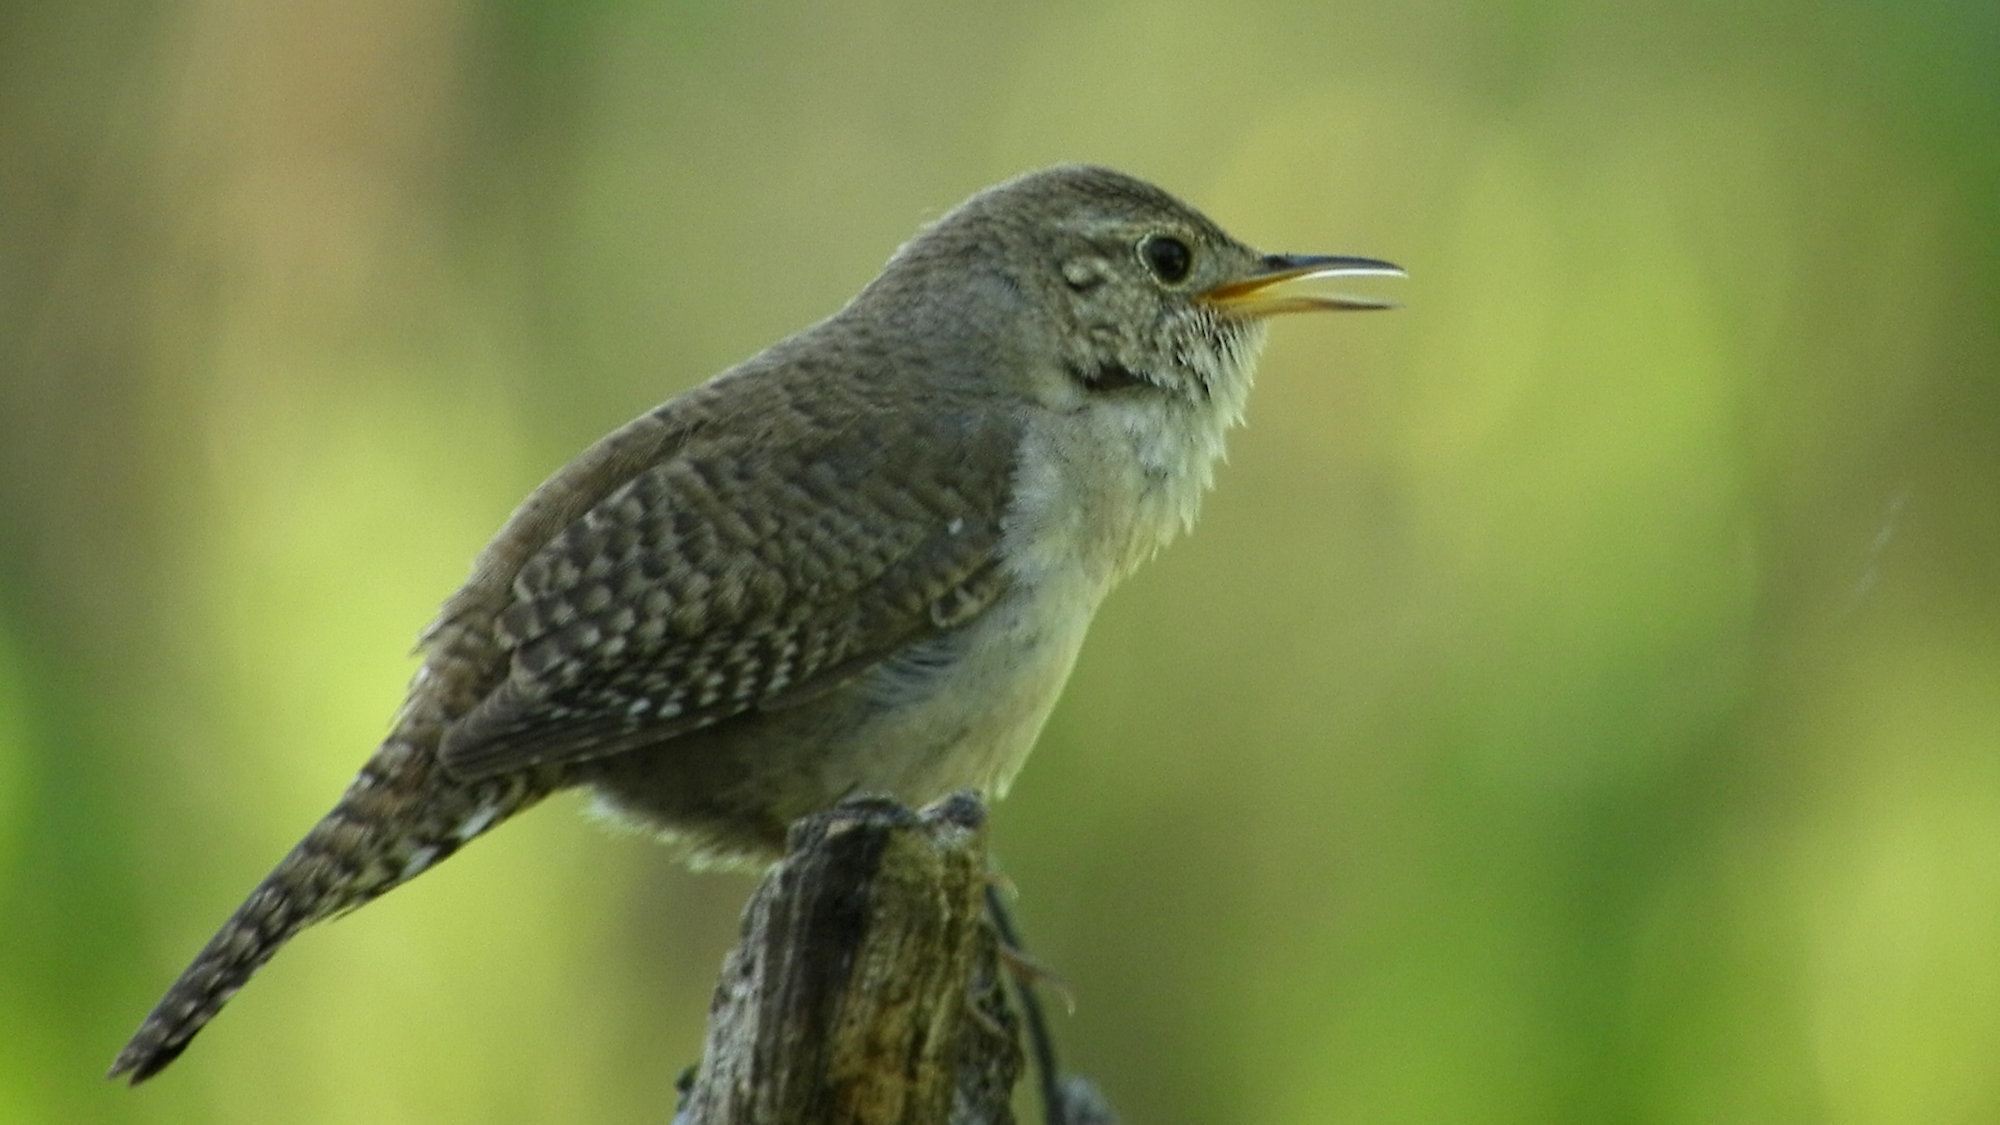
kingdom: Animalia
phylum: Chordata
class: Aves
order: Passeriformes
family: Troglodytidae
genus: Troglodytes
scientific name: Troglodytes aedon
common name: House wren
